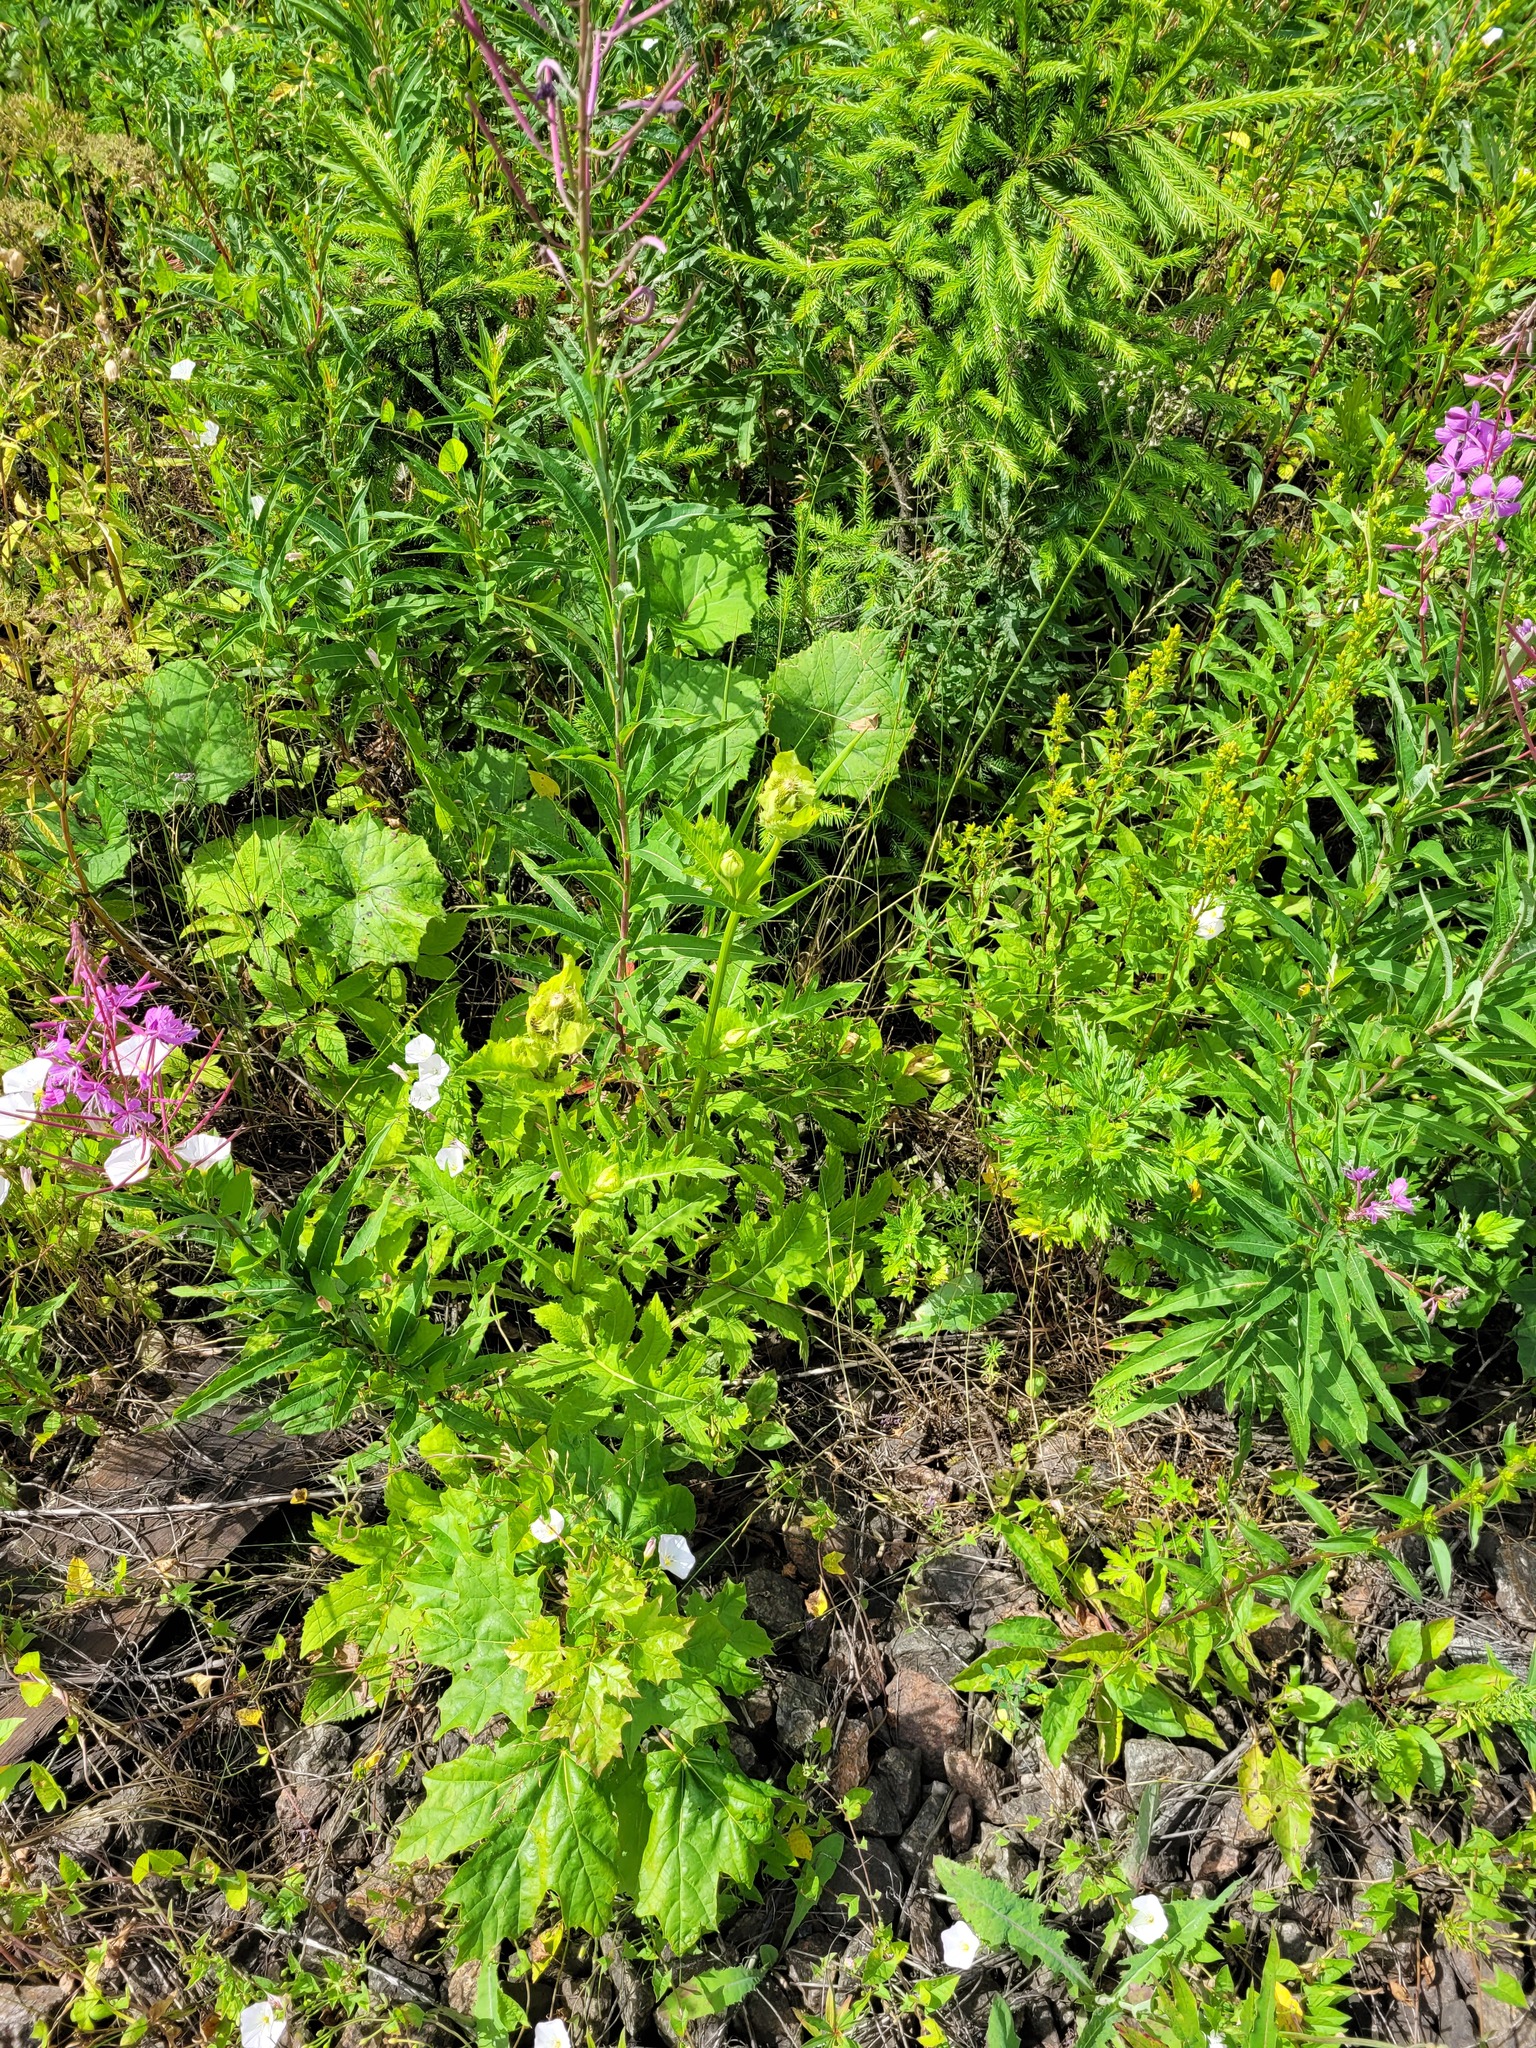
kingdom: Plantae
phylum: Tracheophyta
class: Magnoliopsida
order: Asterales
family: Asteraceae
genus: Cirsium
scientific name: Cirsium oleraceum
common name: Cabbage thistle
